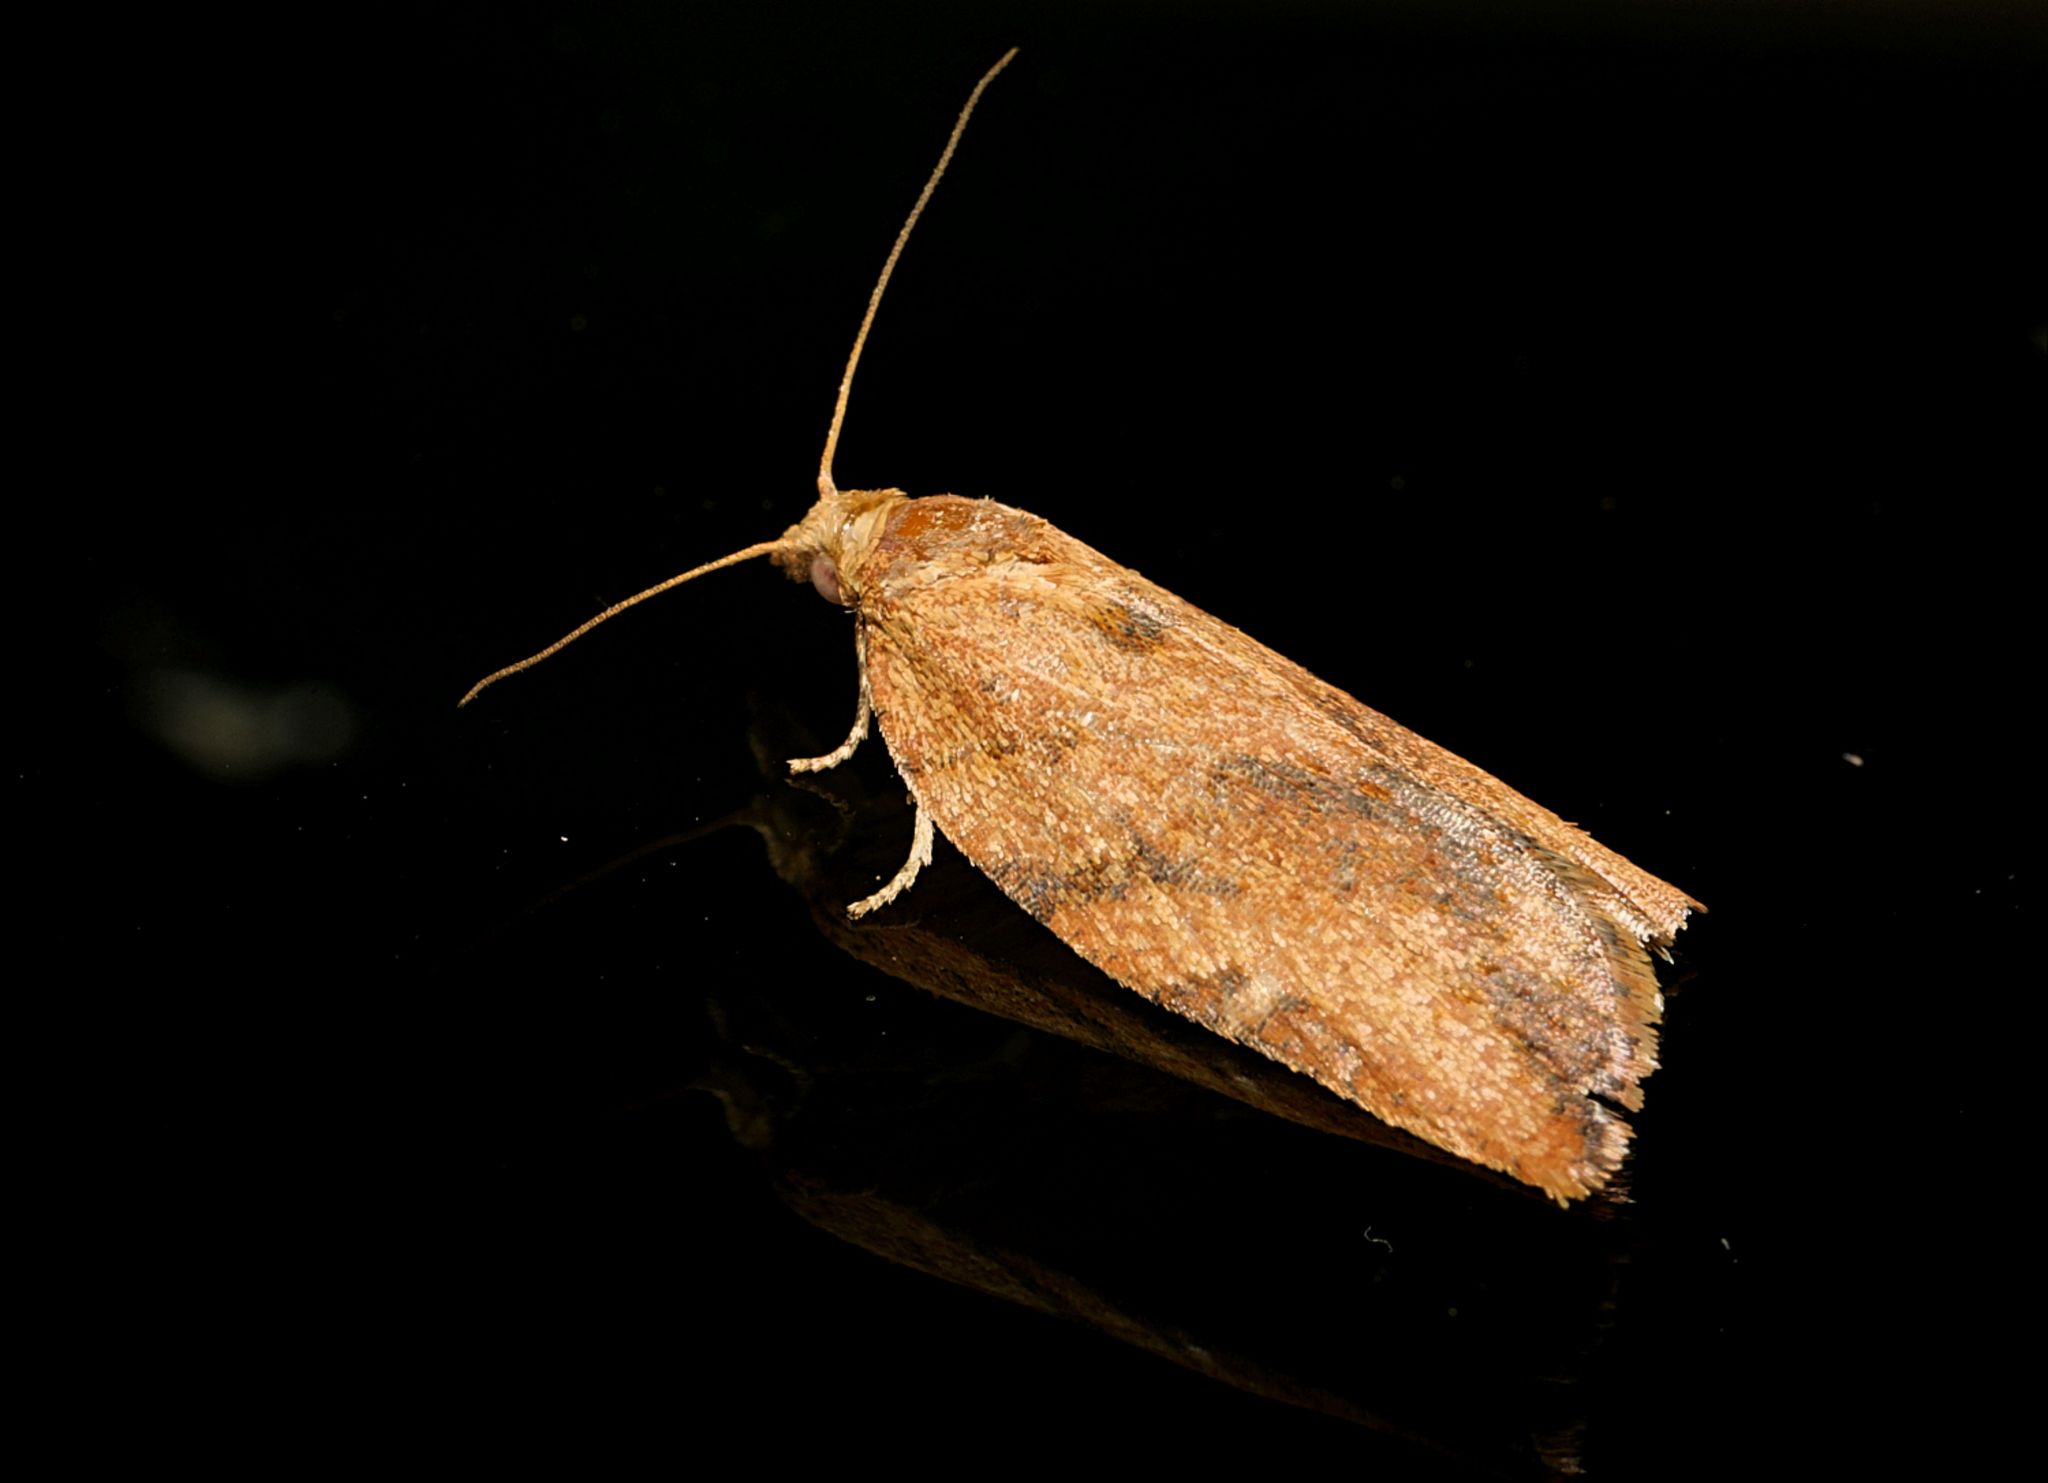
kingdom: Animalia
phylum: Arthropoda
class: Insecta
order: Lepidoptera
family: Tortricidae
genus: Epiphyas
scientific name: Epiphyas postvittana
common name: Light brown apple moth
